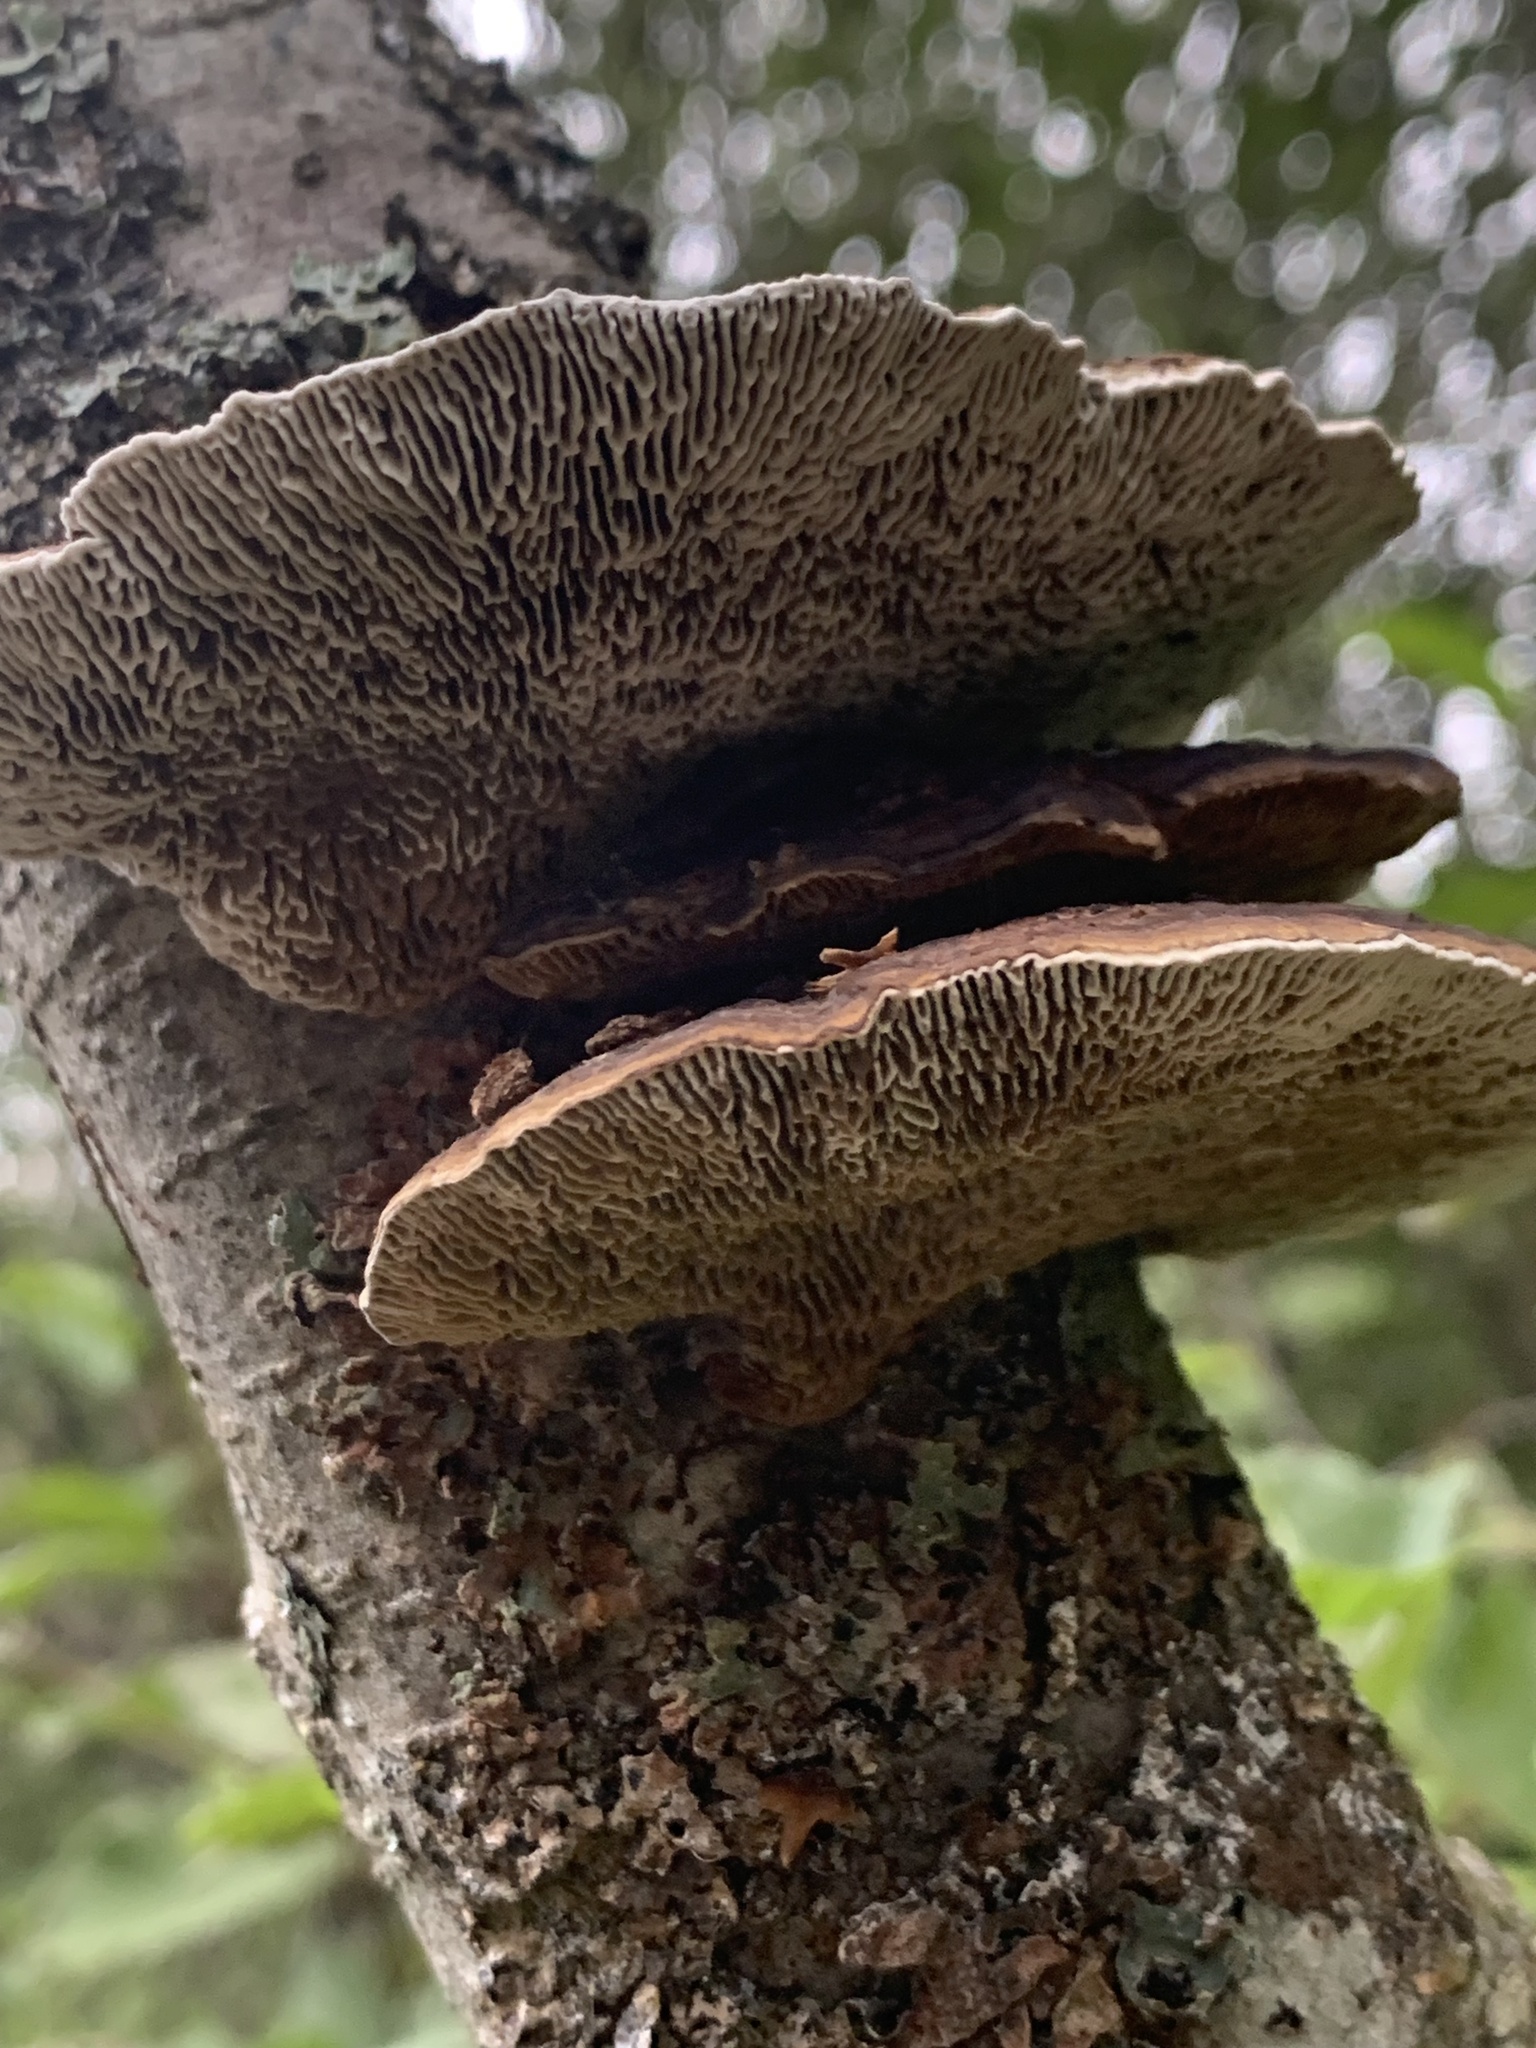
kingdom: Fungi
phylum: Basidiomycota
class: Agaricomycetes
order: Polyporales
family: Polyporaceae
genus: Daedaleopsis
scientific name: Daedaleopsis confragosa
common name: Blushing bracket
